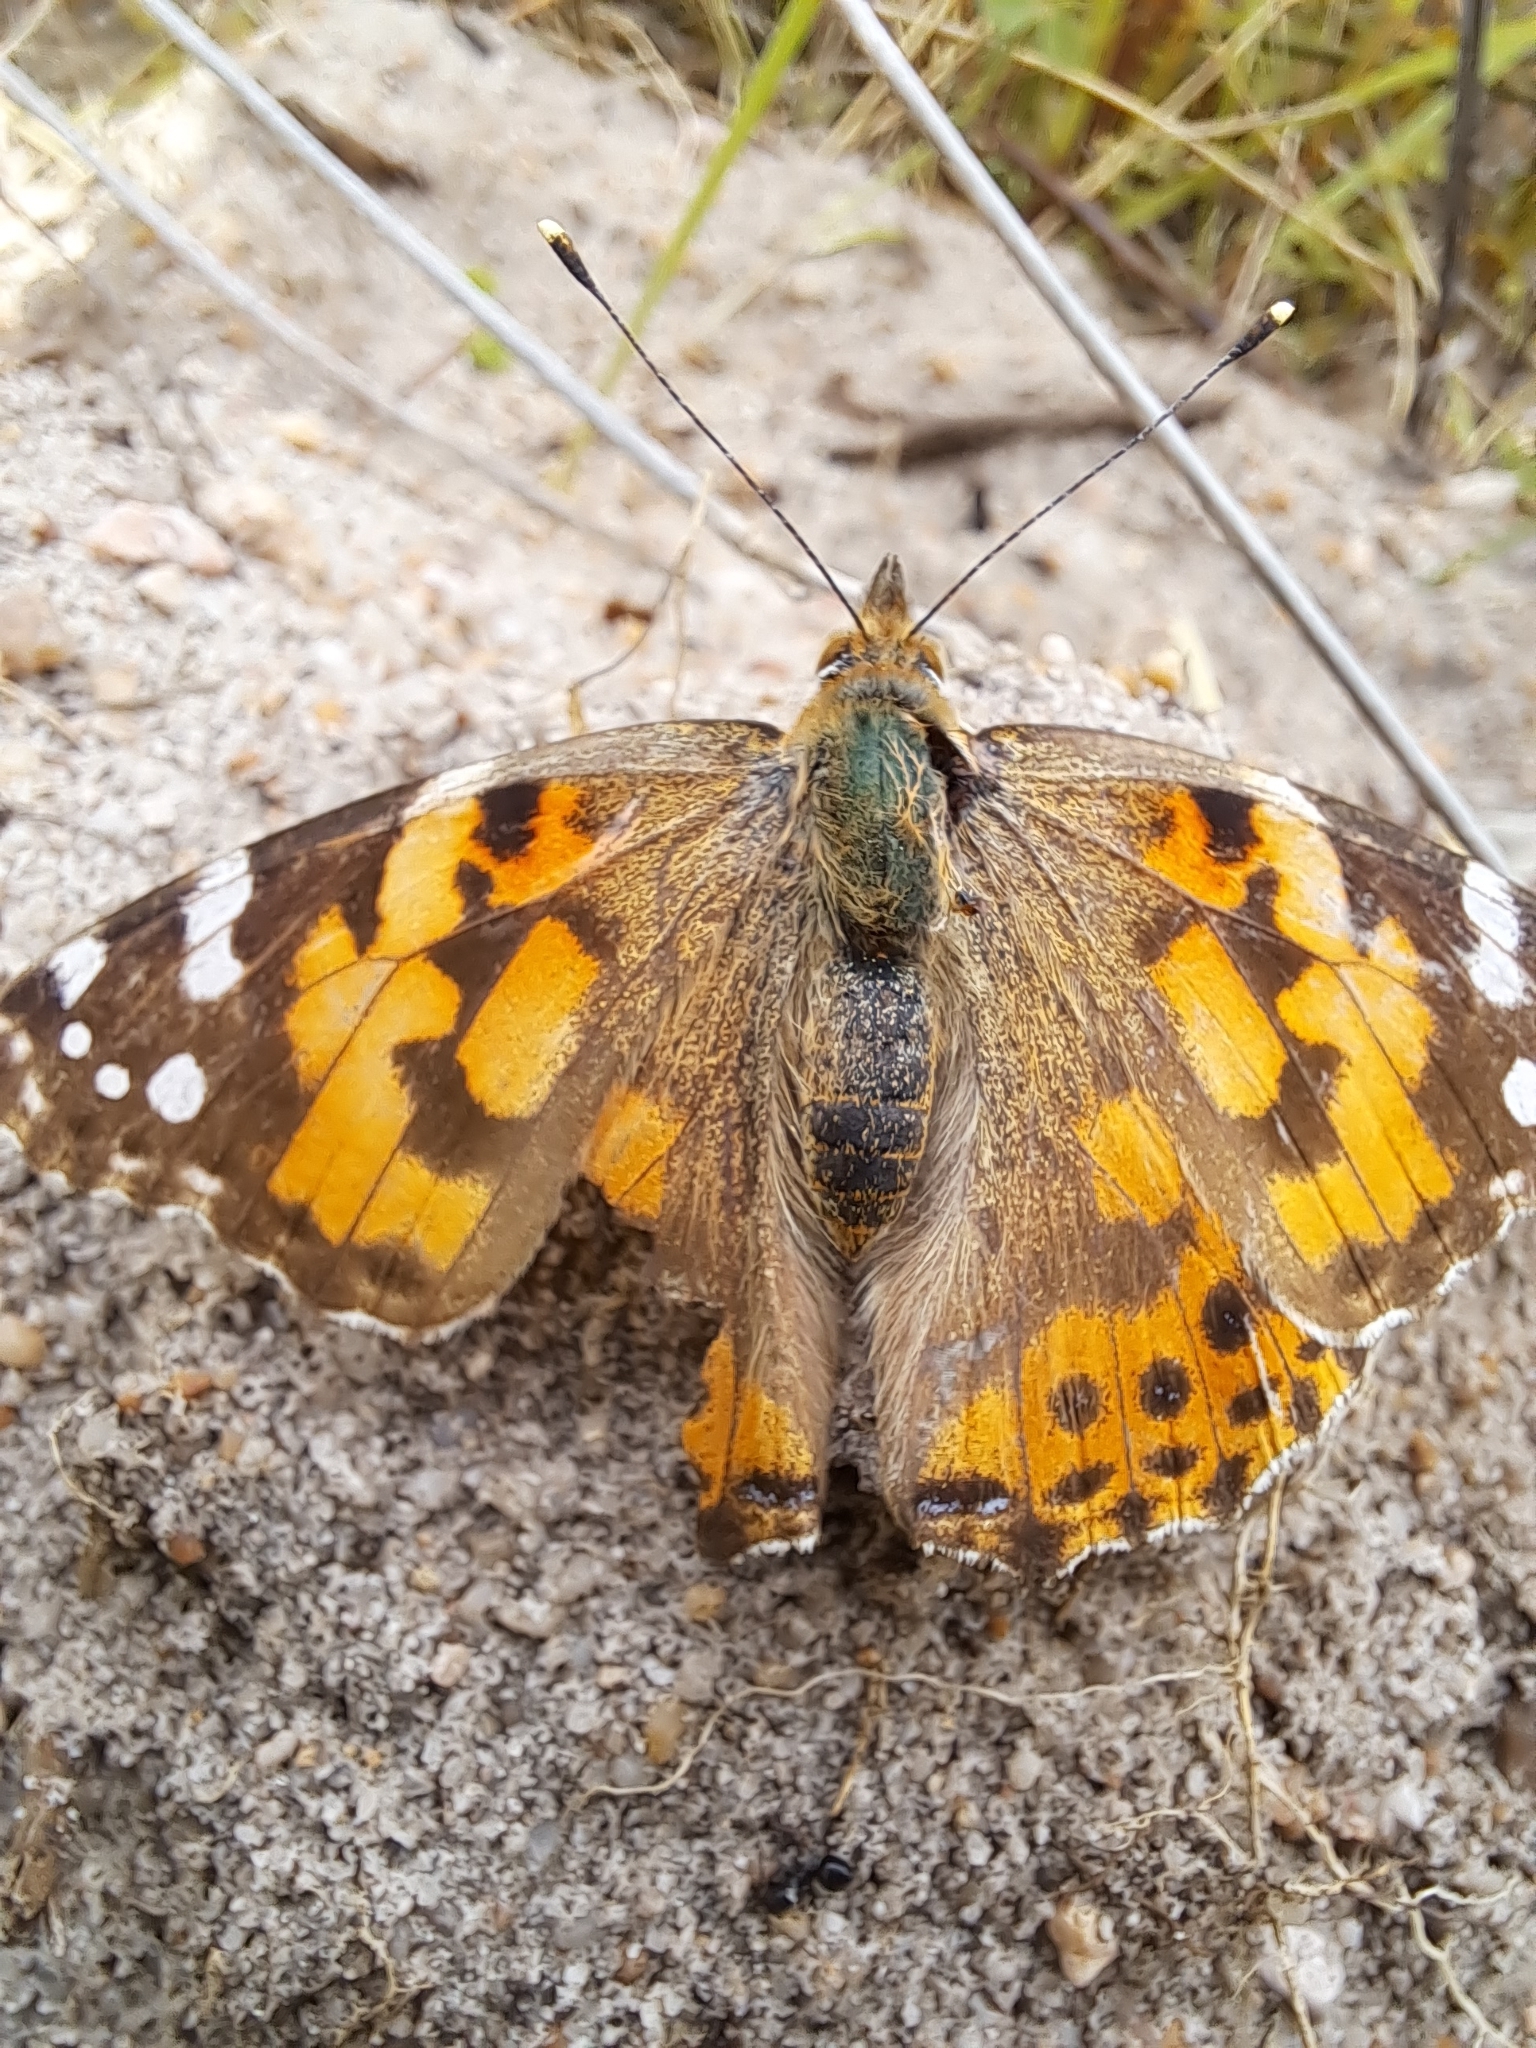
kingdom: Animalia
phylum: Arthropoda
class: Insecta
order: Lepidoptera
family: Nymphalidae
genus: Vanessa
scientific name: Vanessa cardui
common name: Painted lady
